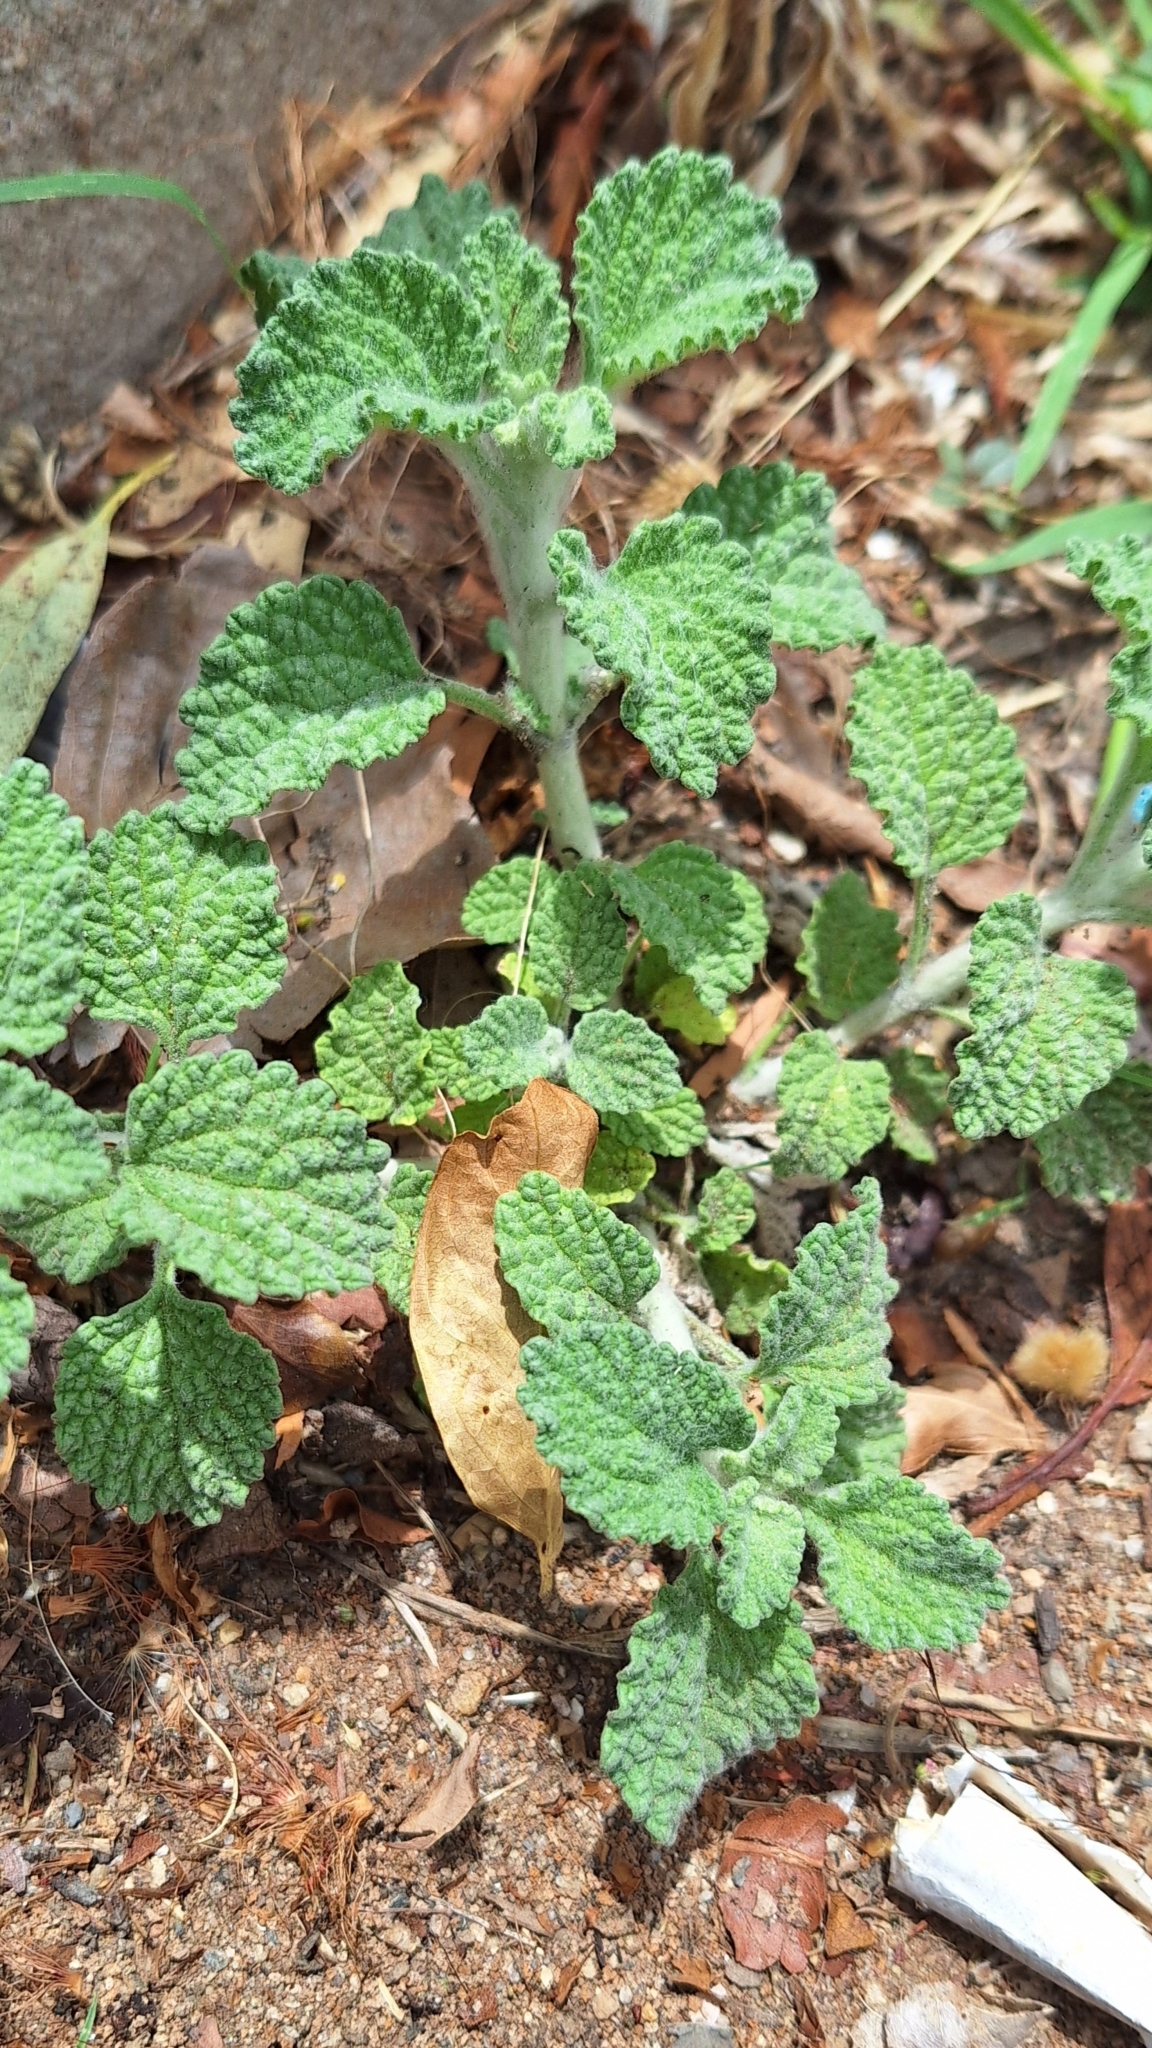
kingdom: Plantae
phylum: Tracheophyta
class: Magnoliopsida
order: Lamiales
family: Lamiaceae
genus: Marrubium
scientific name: Marrubium vulgare
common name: Horehound
